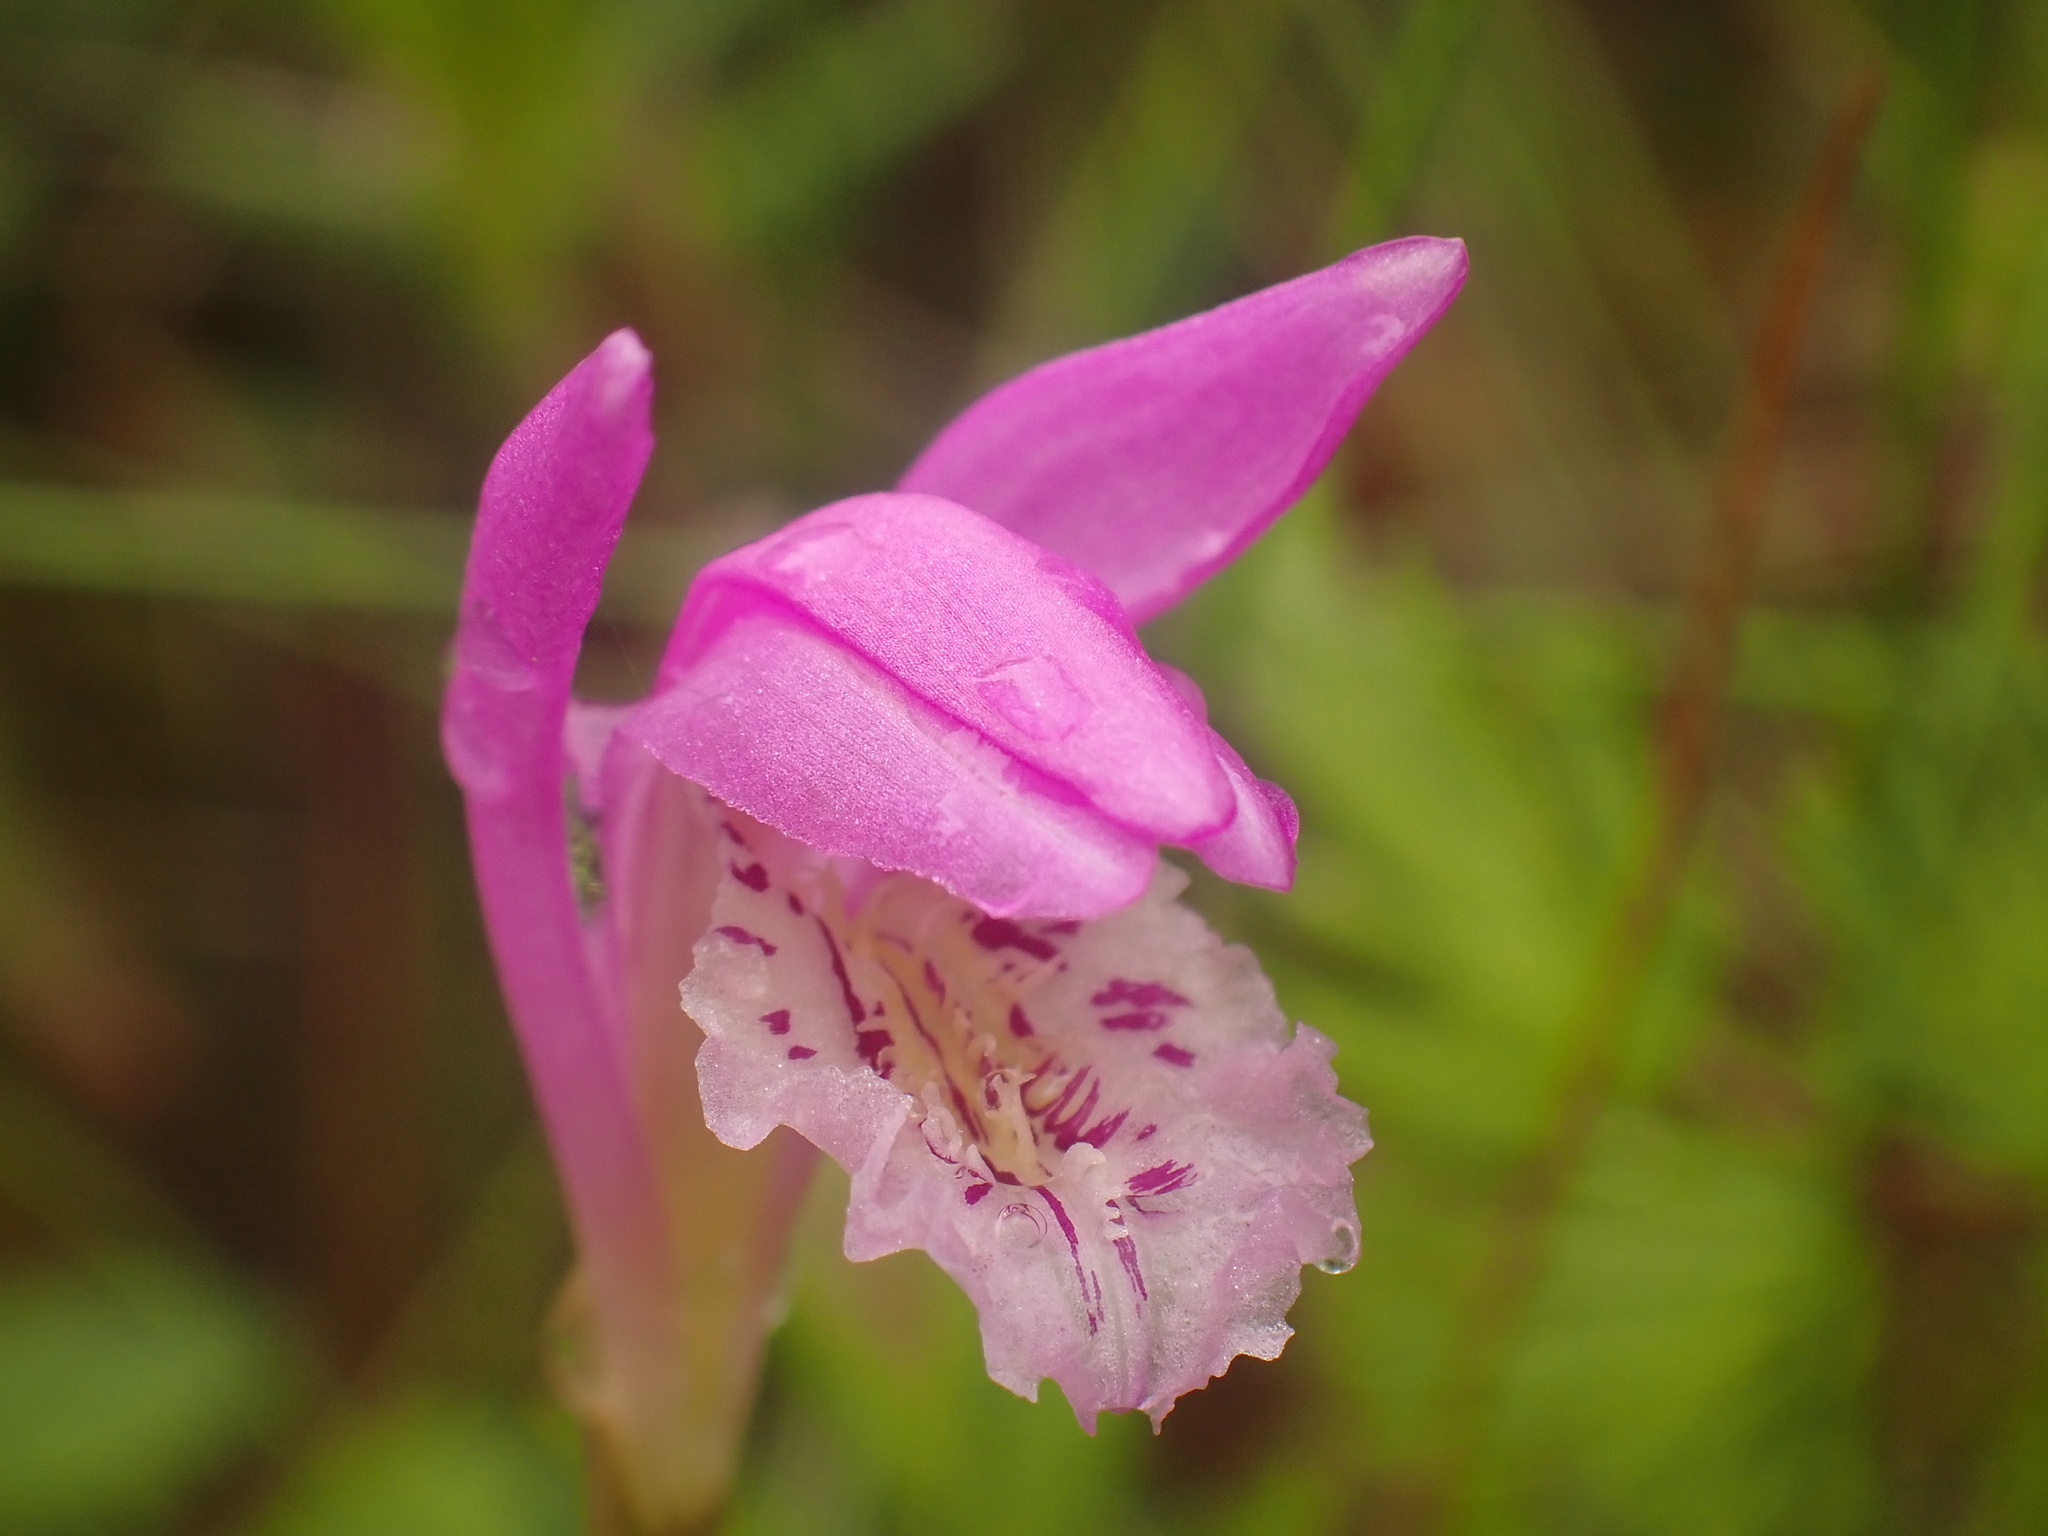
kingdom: Plantae
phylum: Tracheophyta
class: Liliopsida
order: Asparagales
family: Orchidaceae
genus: Arethusa
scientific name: Arethusa bulbosa
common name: Arethusa
